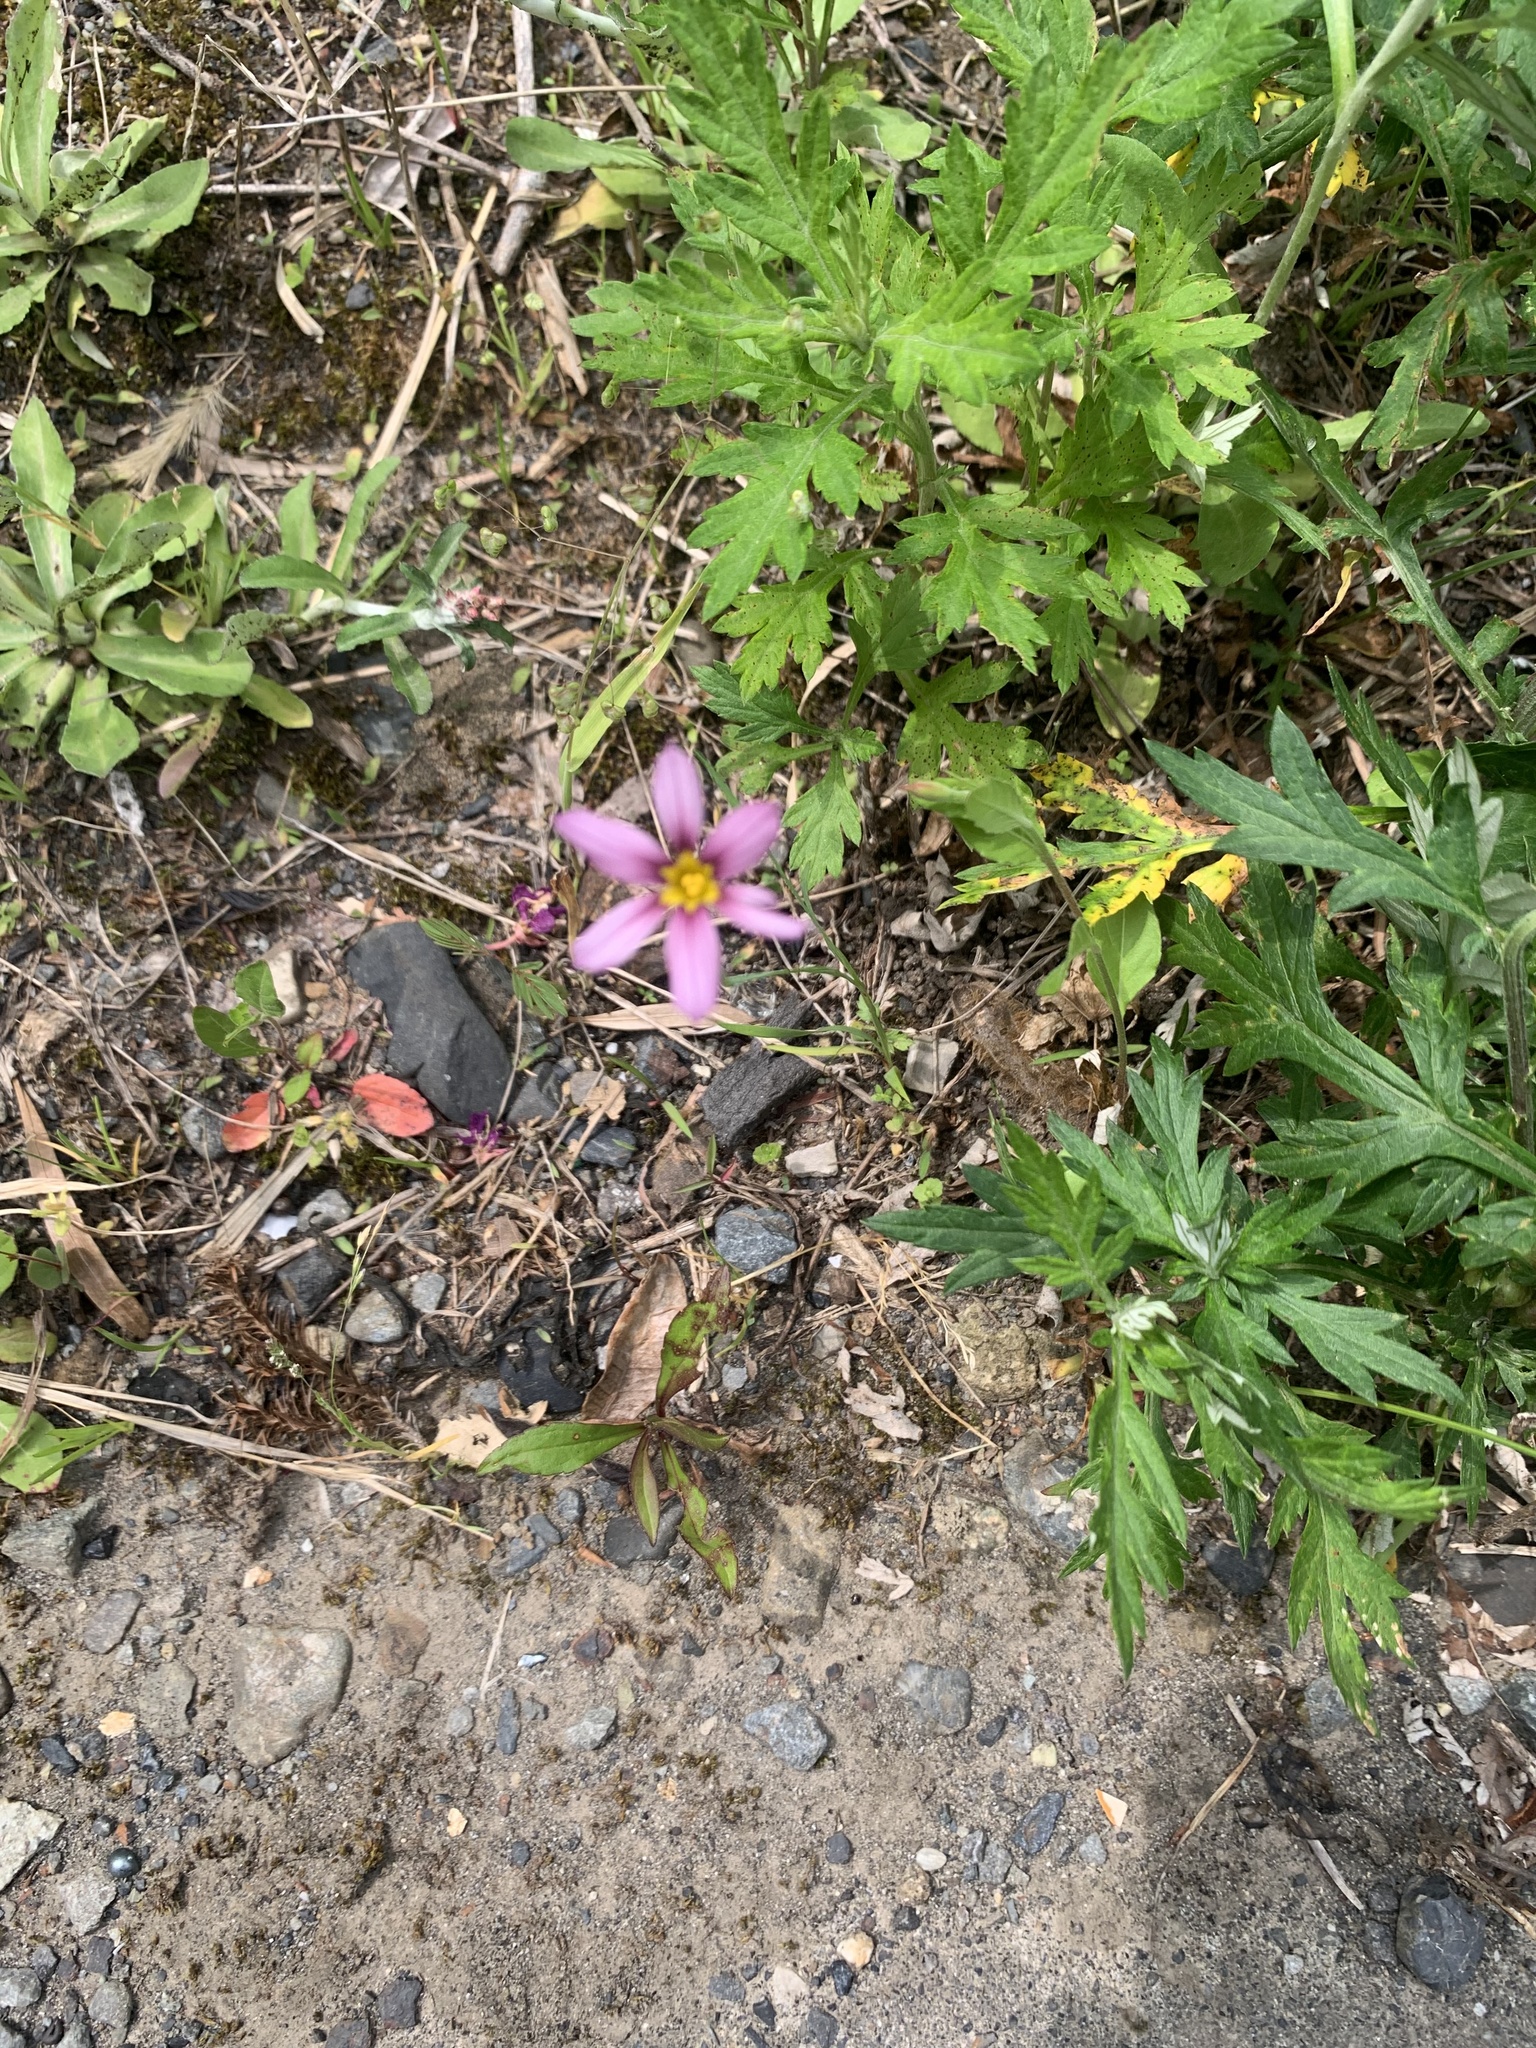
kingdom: Plantae
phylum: Tracheophyta
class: Liliopsida
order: Asparagales
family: Iridaceae
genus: Sisyrinchium
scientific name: Sisyrinchium micranthum
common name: Bermuda pigroot
